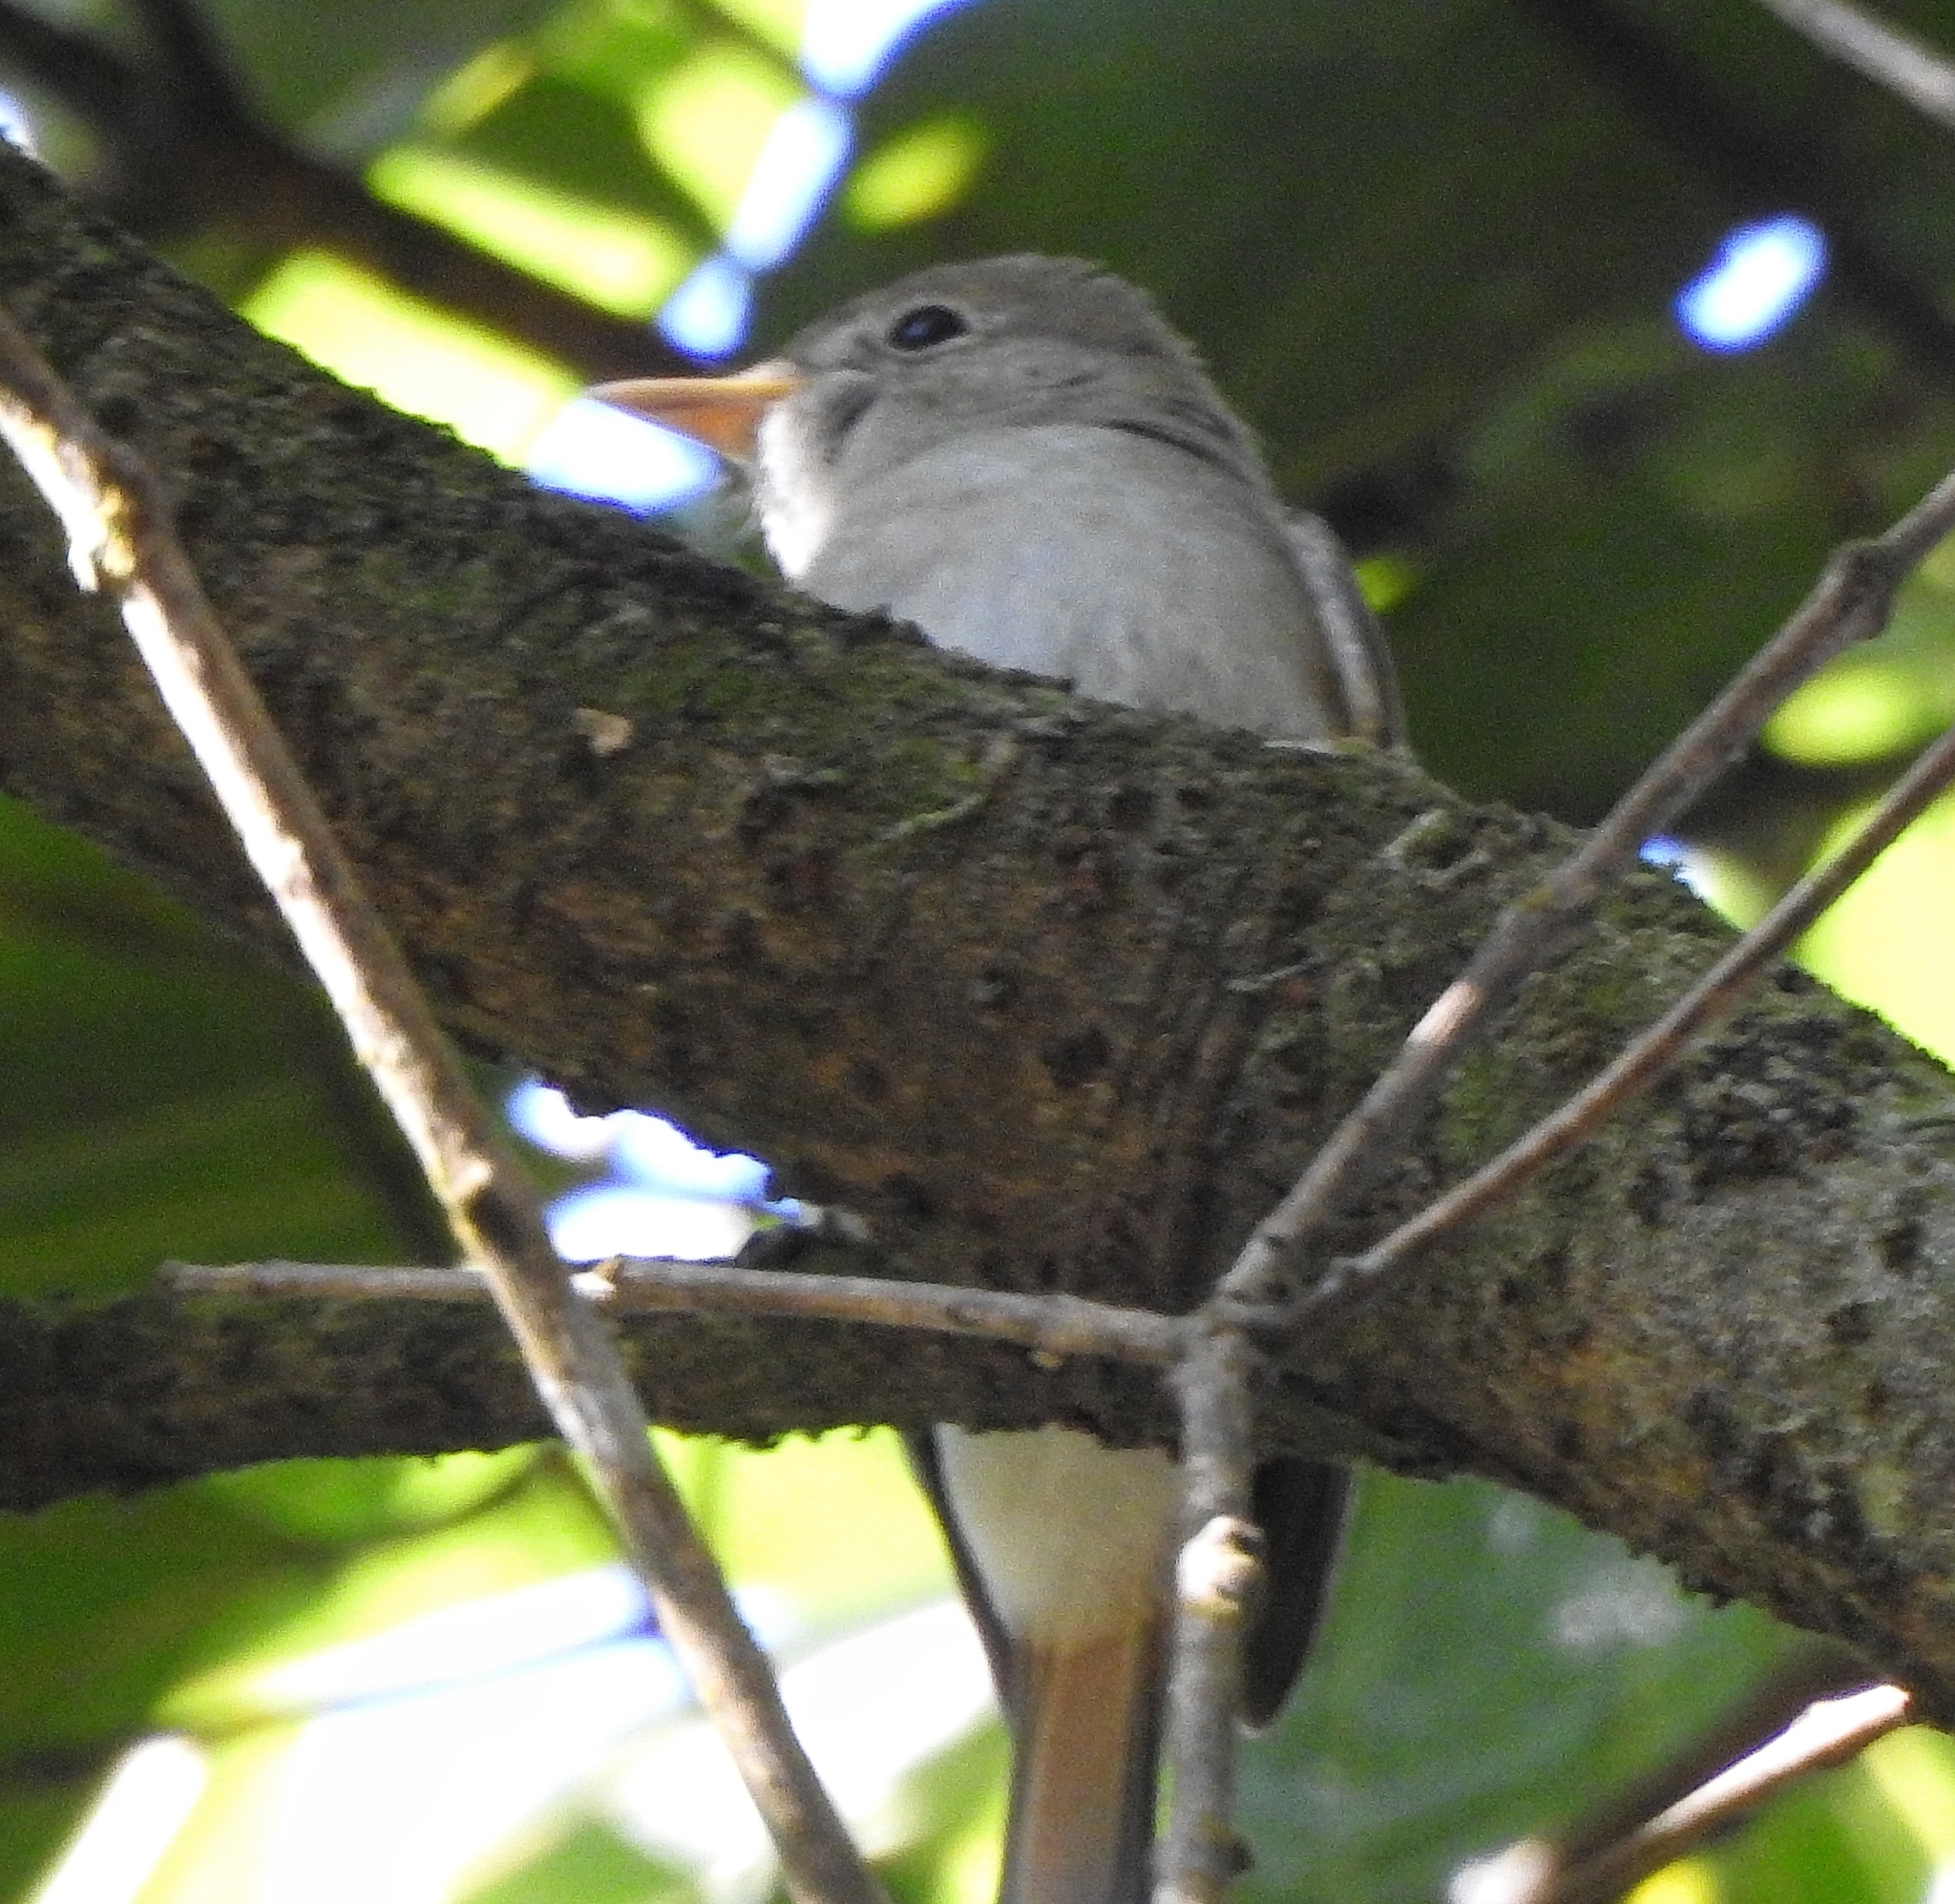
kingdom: Animalia
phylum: Chordata
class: Aves
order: Passeriformes
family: Muscicapidae
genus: Muscicapa
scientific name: Muscicapa ruficauda
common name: Rusty-tailed flycatcher
